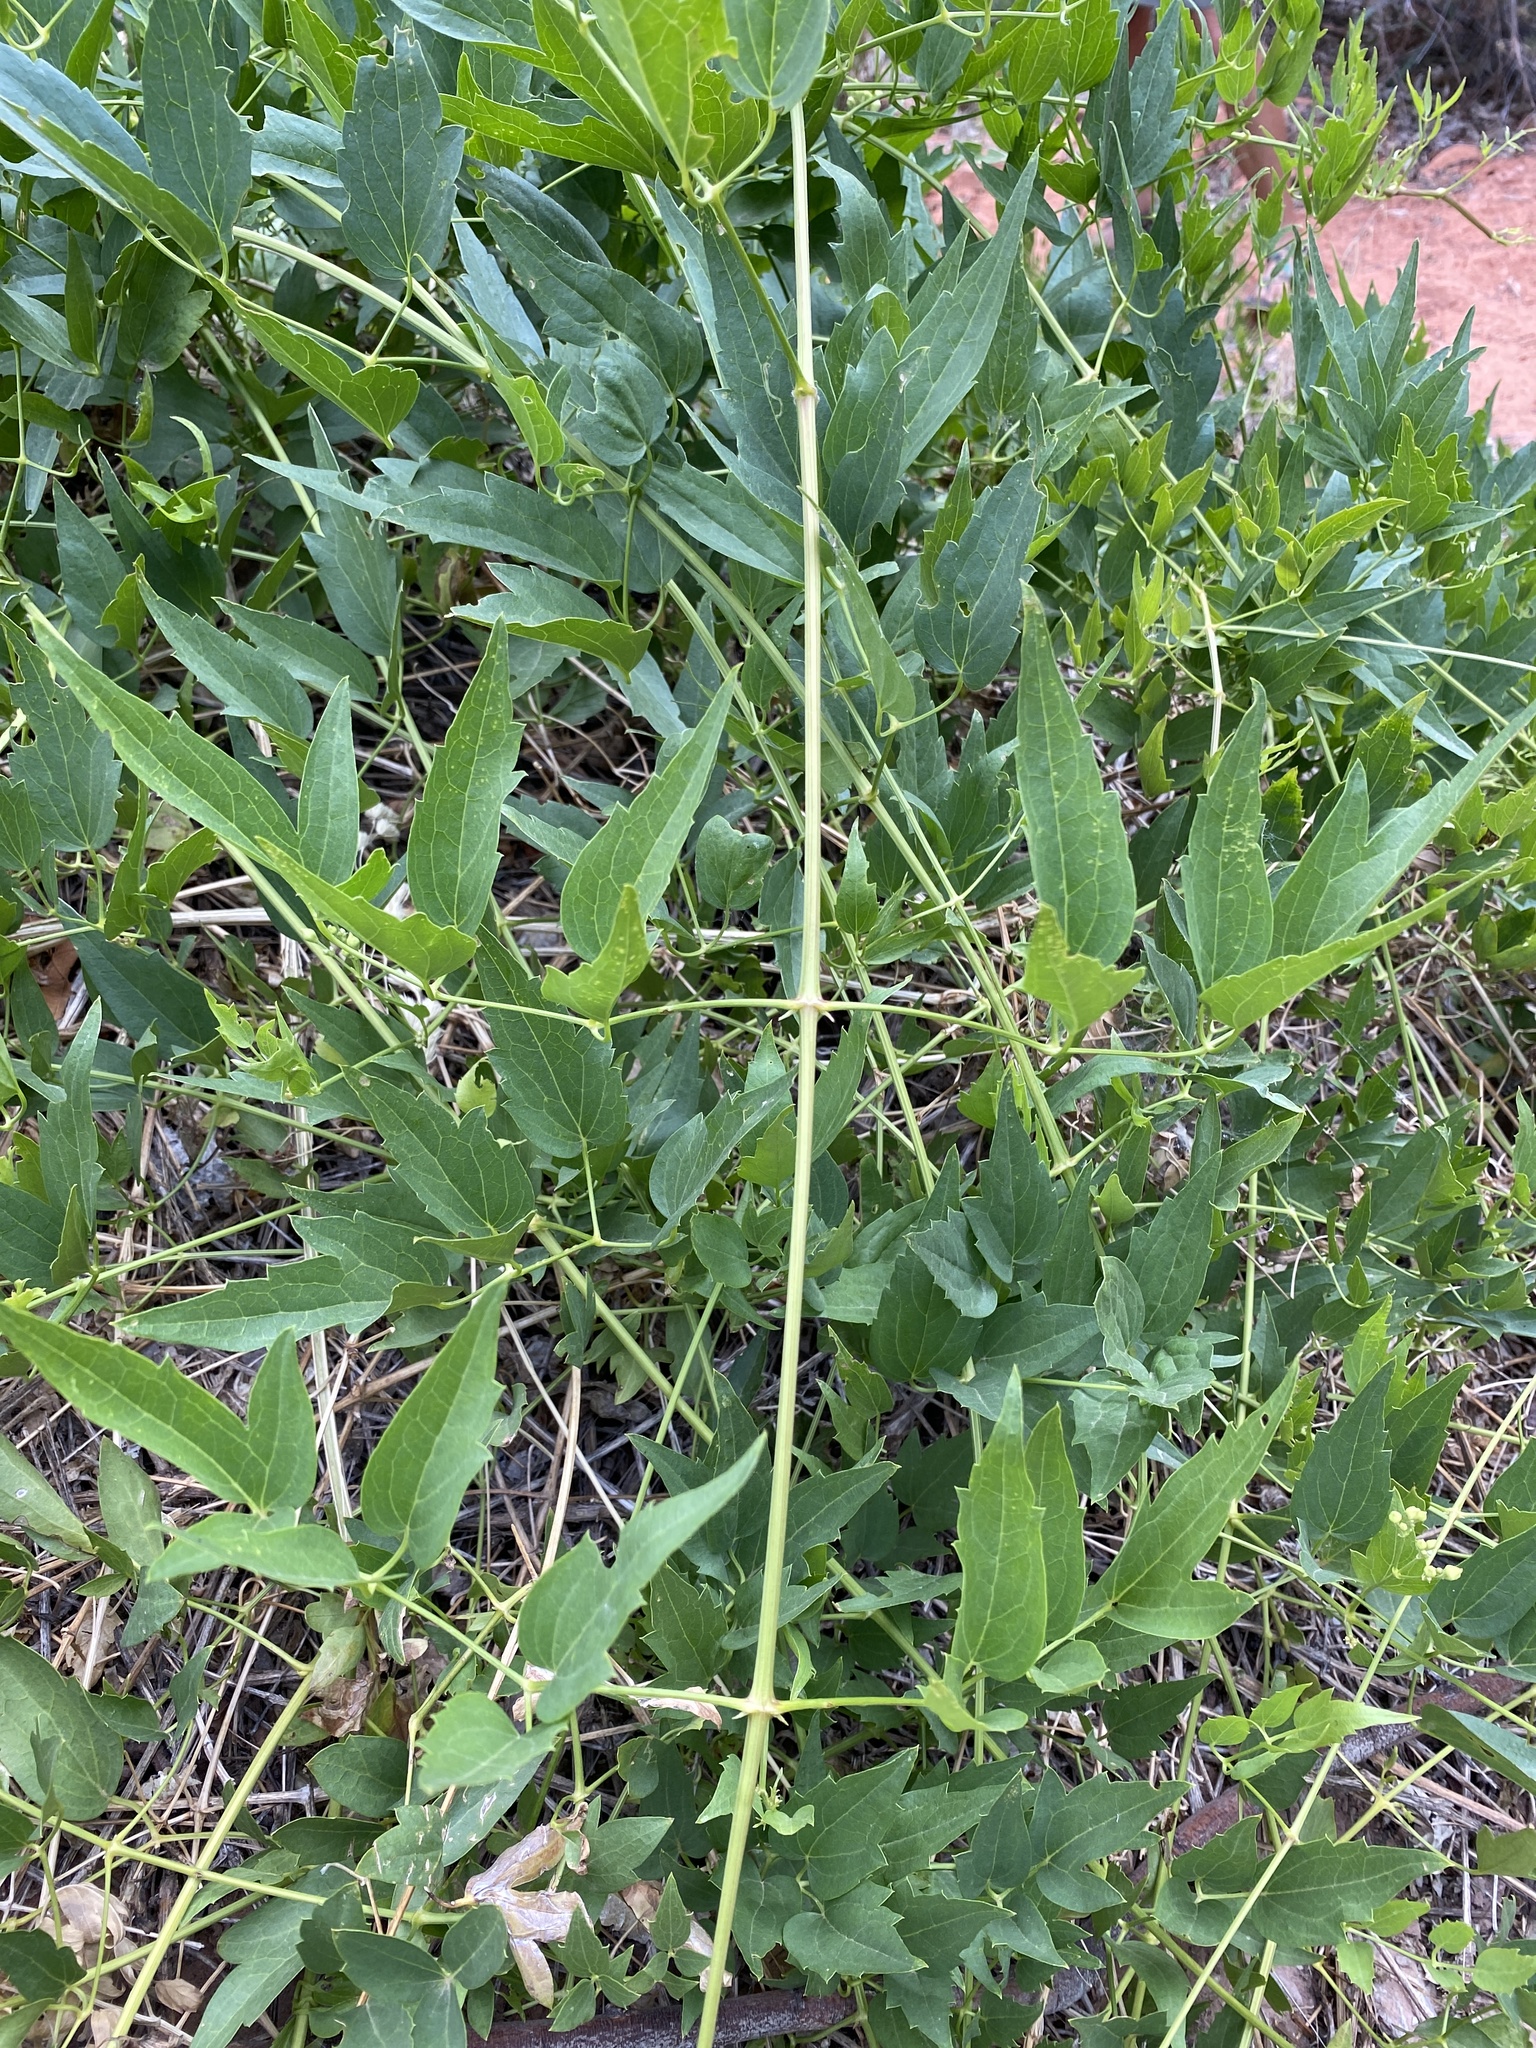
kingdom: Plantae
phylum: Tracheophyta
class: Magnoliopsida
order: Ranunculales
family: Ranunculaceae
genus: Clematis
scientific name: Clematis ligusticifolia
